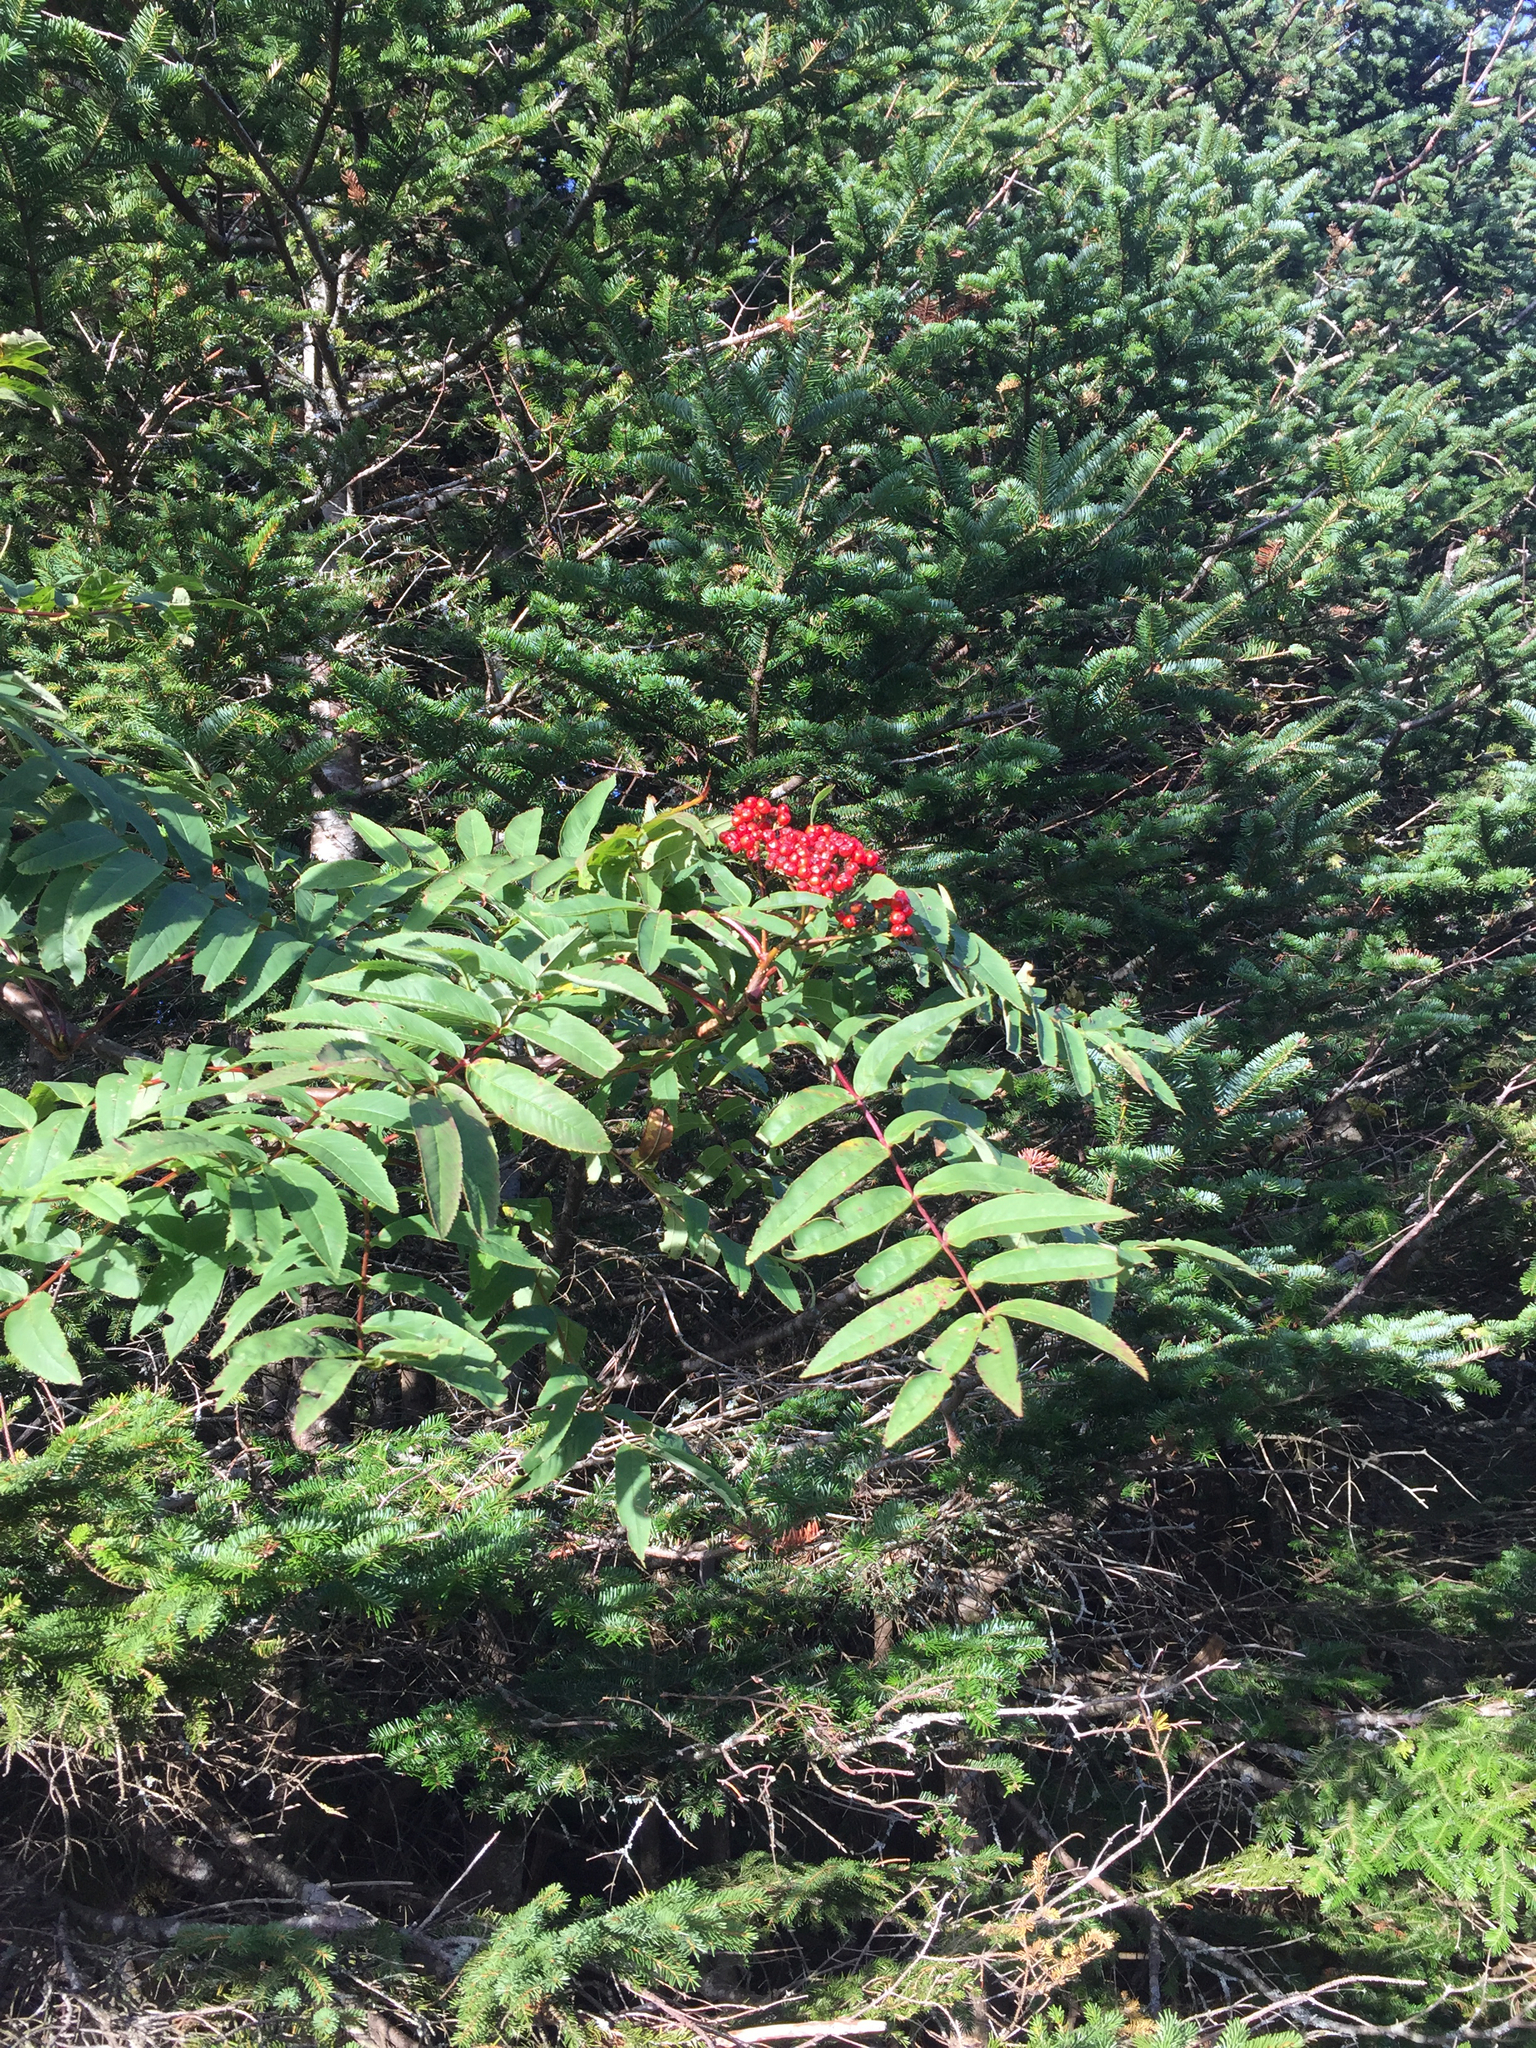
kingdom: Plantae
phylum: Tracheophyta
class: Magnoliopsida
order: Rosales
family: Rosaceae
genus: Sorbus
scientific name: Sorbus americana
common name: American mountain-ash
